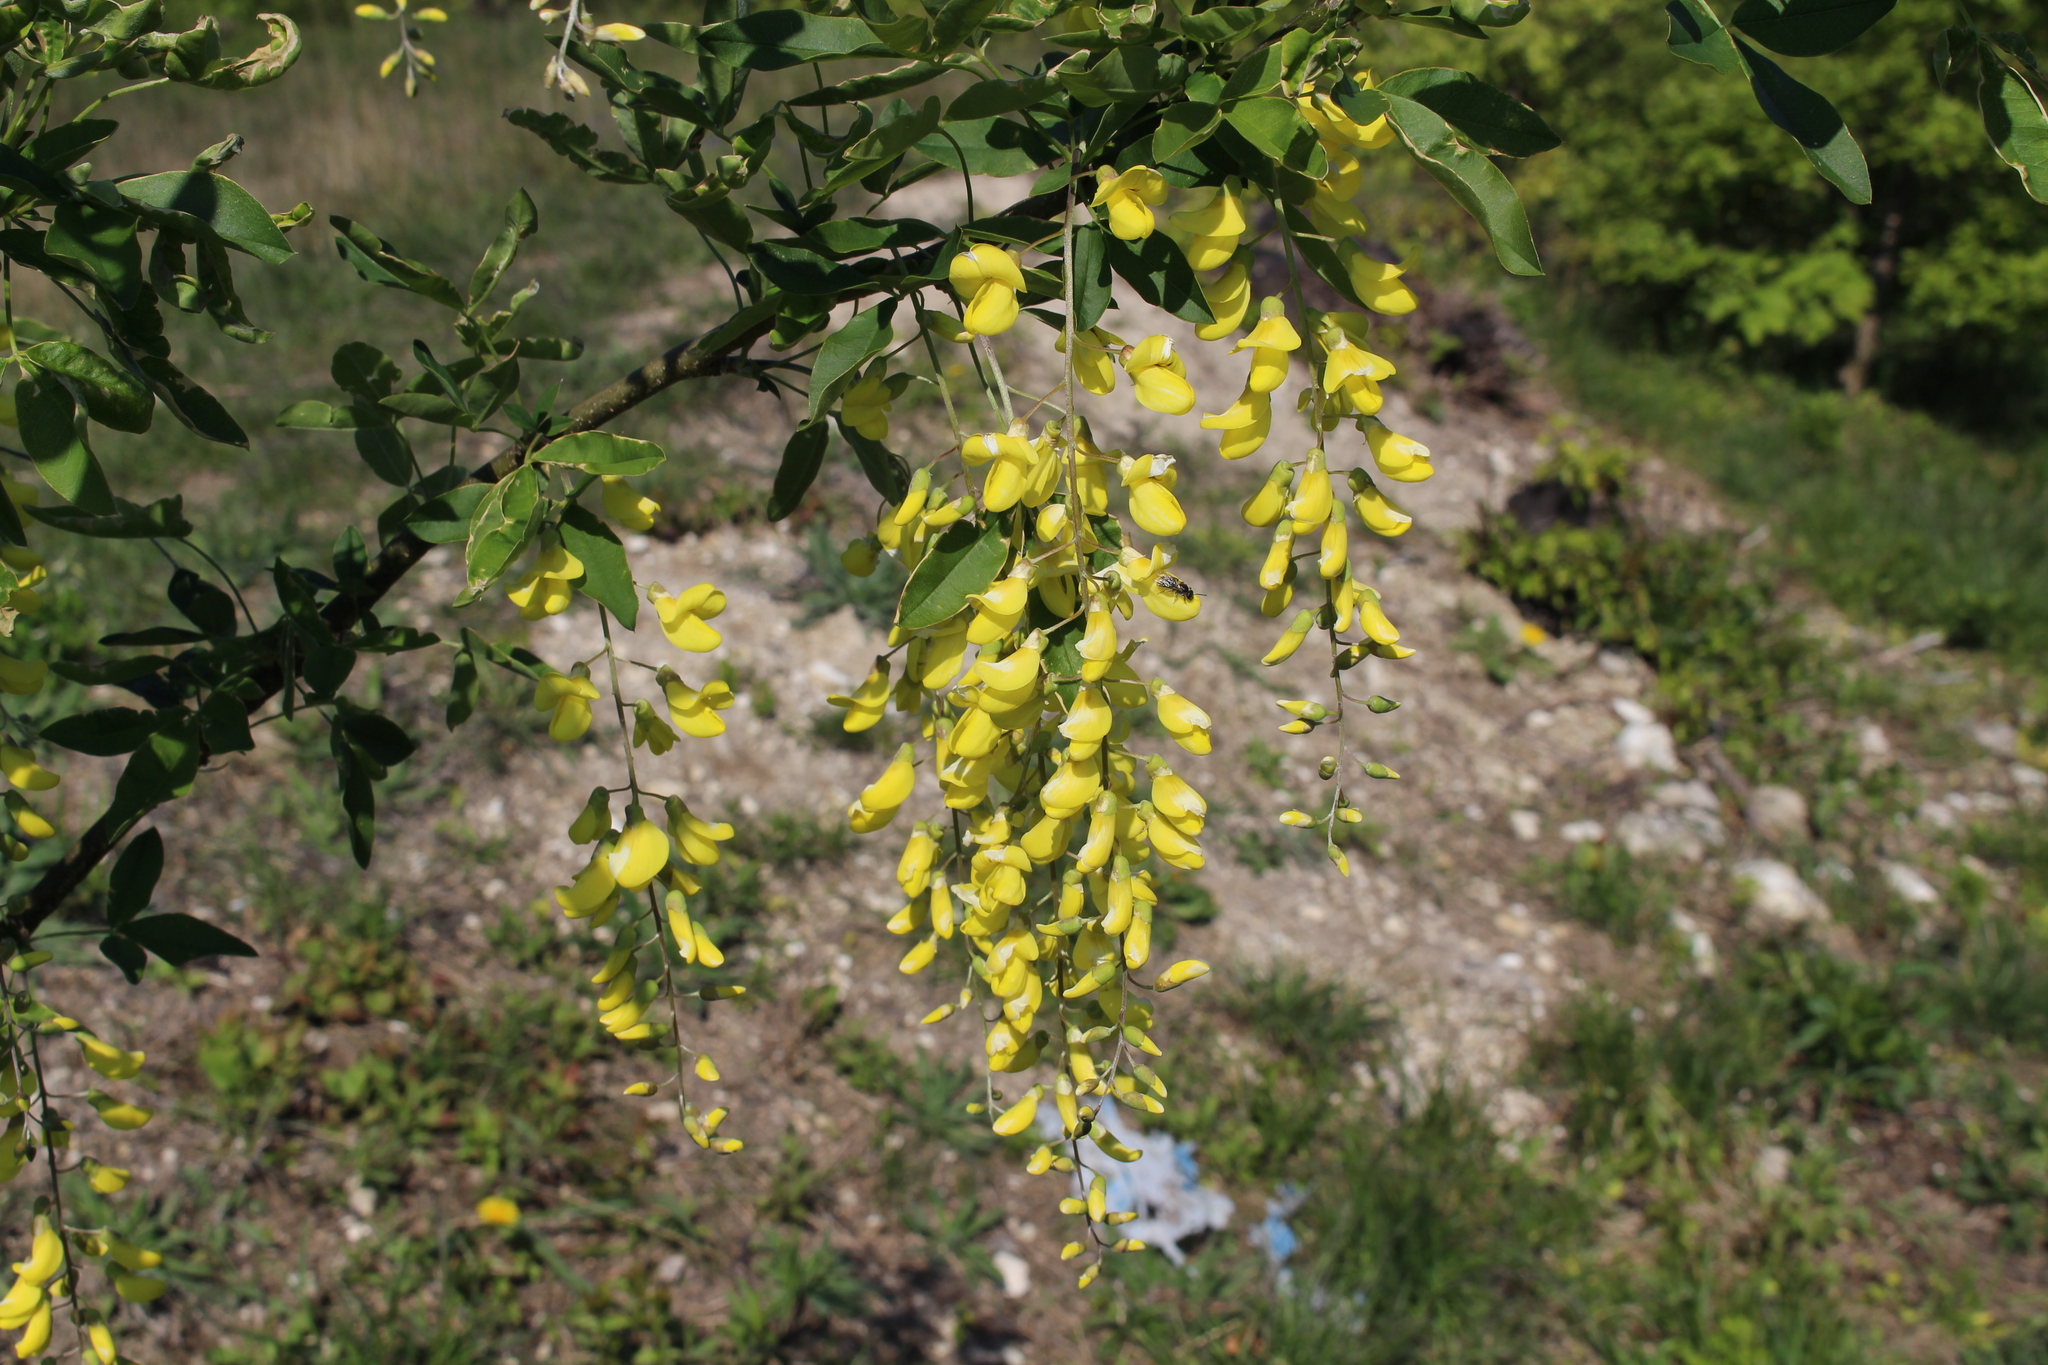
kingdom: Plantae
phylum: Tracheophyta
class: Magnoliopsida
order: Fabales
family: Fabaceae
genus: Laburnum
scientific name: Laburnum anagyroides
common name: Laburnum
